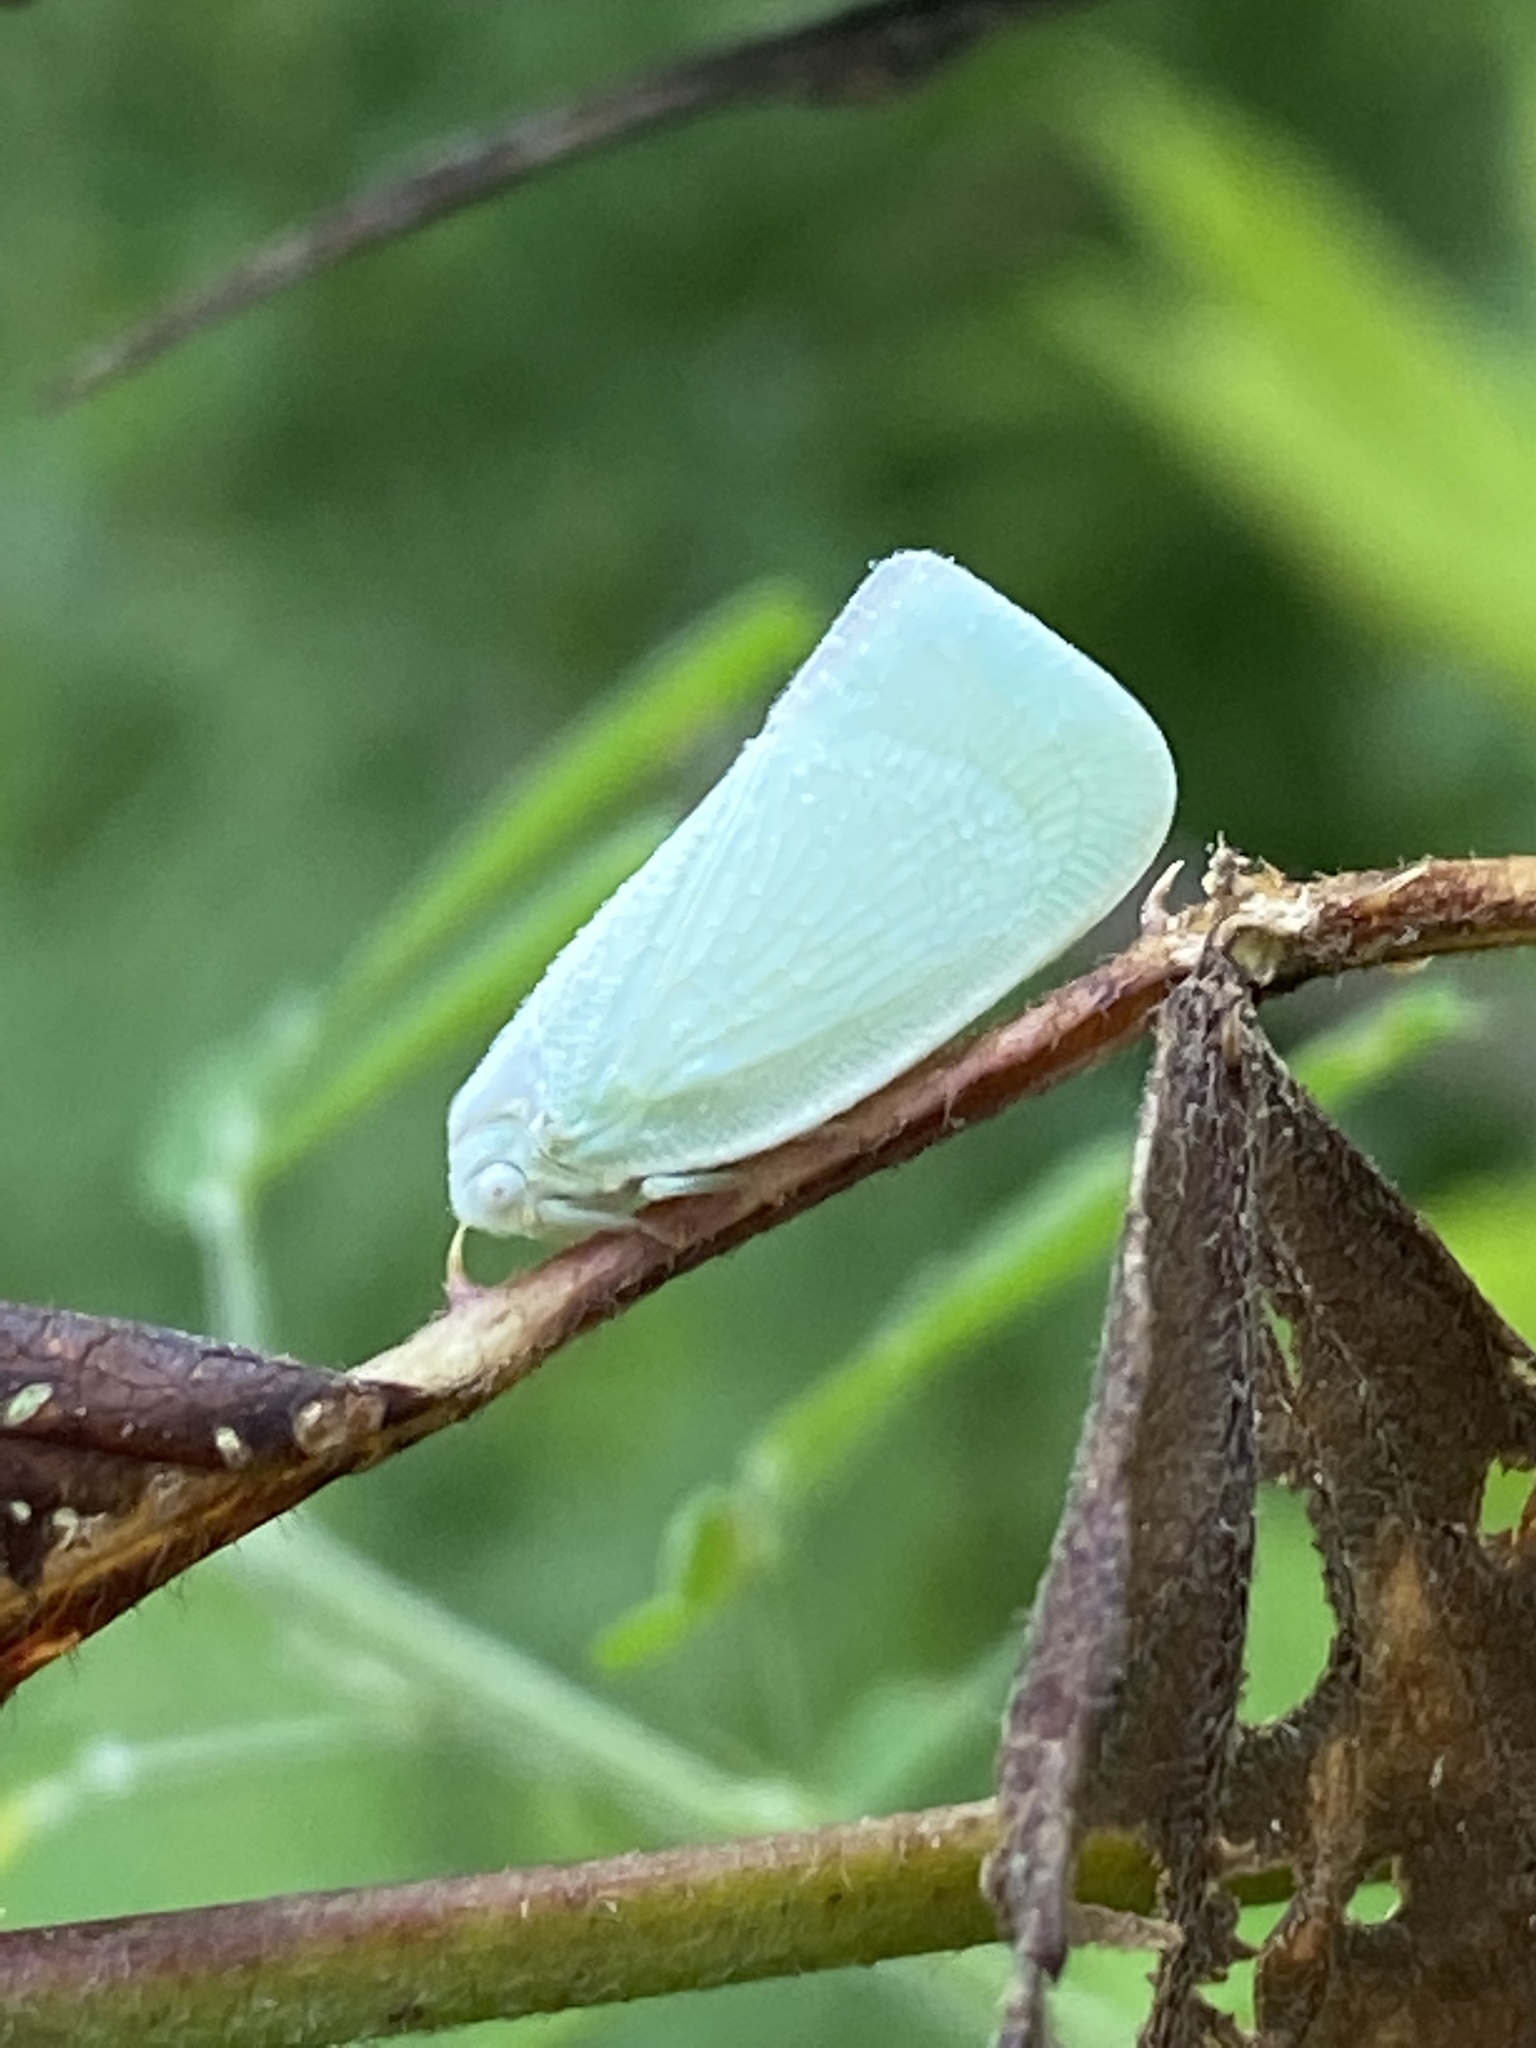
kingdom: Animalia
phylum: Arthropoda
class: Insecta
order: Hemiptera
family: Flatidae
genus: Flatormenis
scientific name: Flatormenis proxima
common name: Northern flatid planthopper
